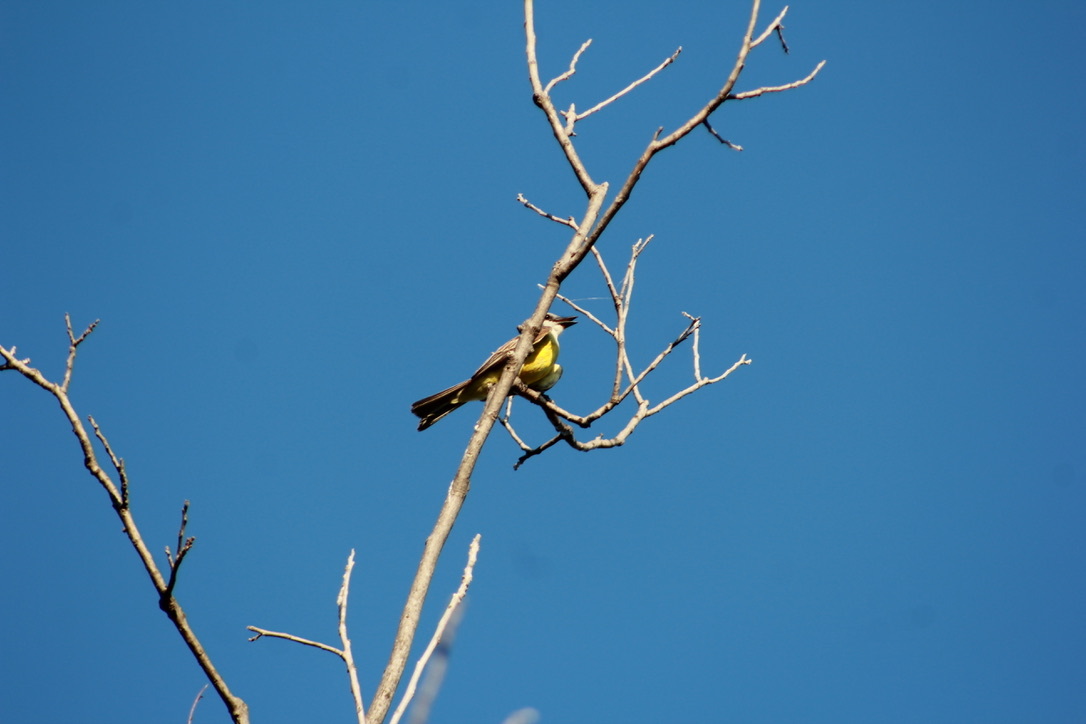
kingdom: Animalia
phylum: Chordata
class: Aves
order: Passeriformes
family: Tyrannidae
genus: Tyrannus
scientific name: Tyrannus verticalis
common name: Western kingbird
